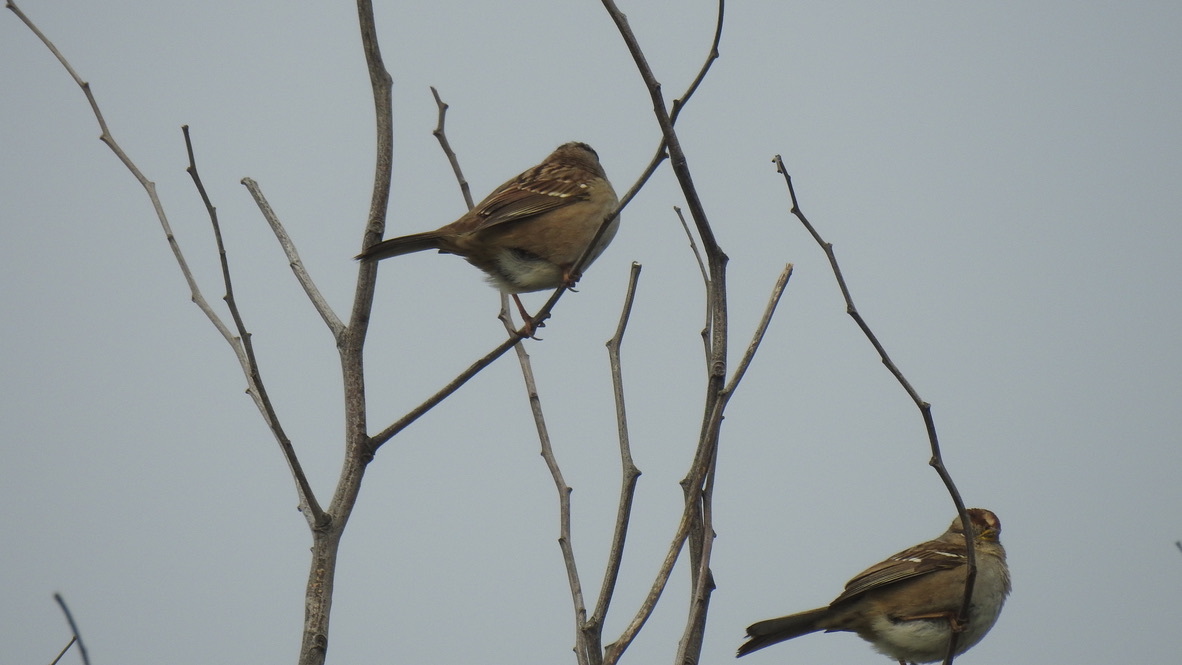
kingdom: Animalia
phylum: Chordata
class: Aves
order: Passeriformes
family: Passerellidae
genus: Zonotrichia
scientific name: Zonotrichia leucophrys
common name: White-crowned sparrow
